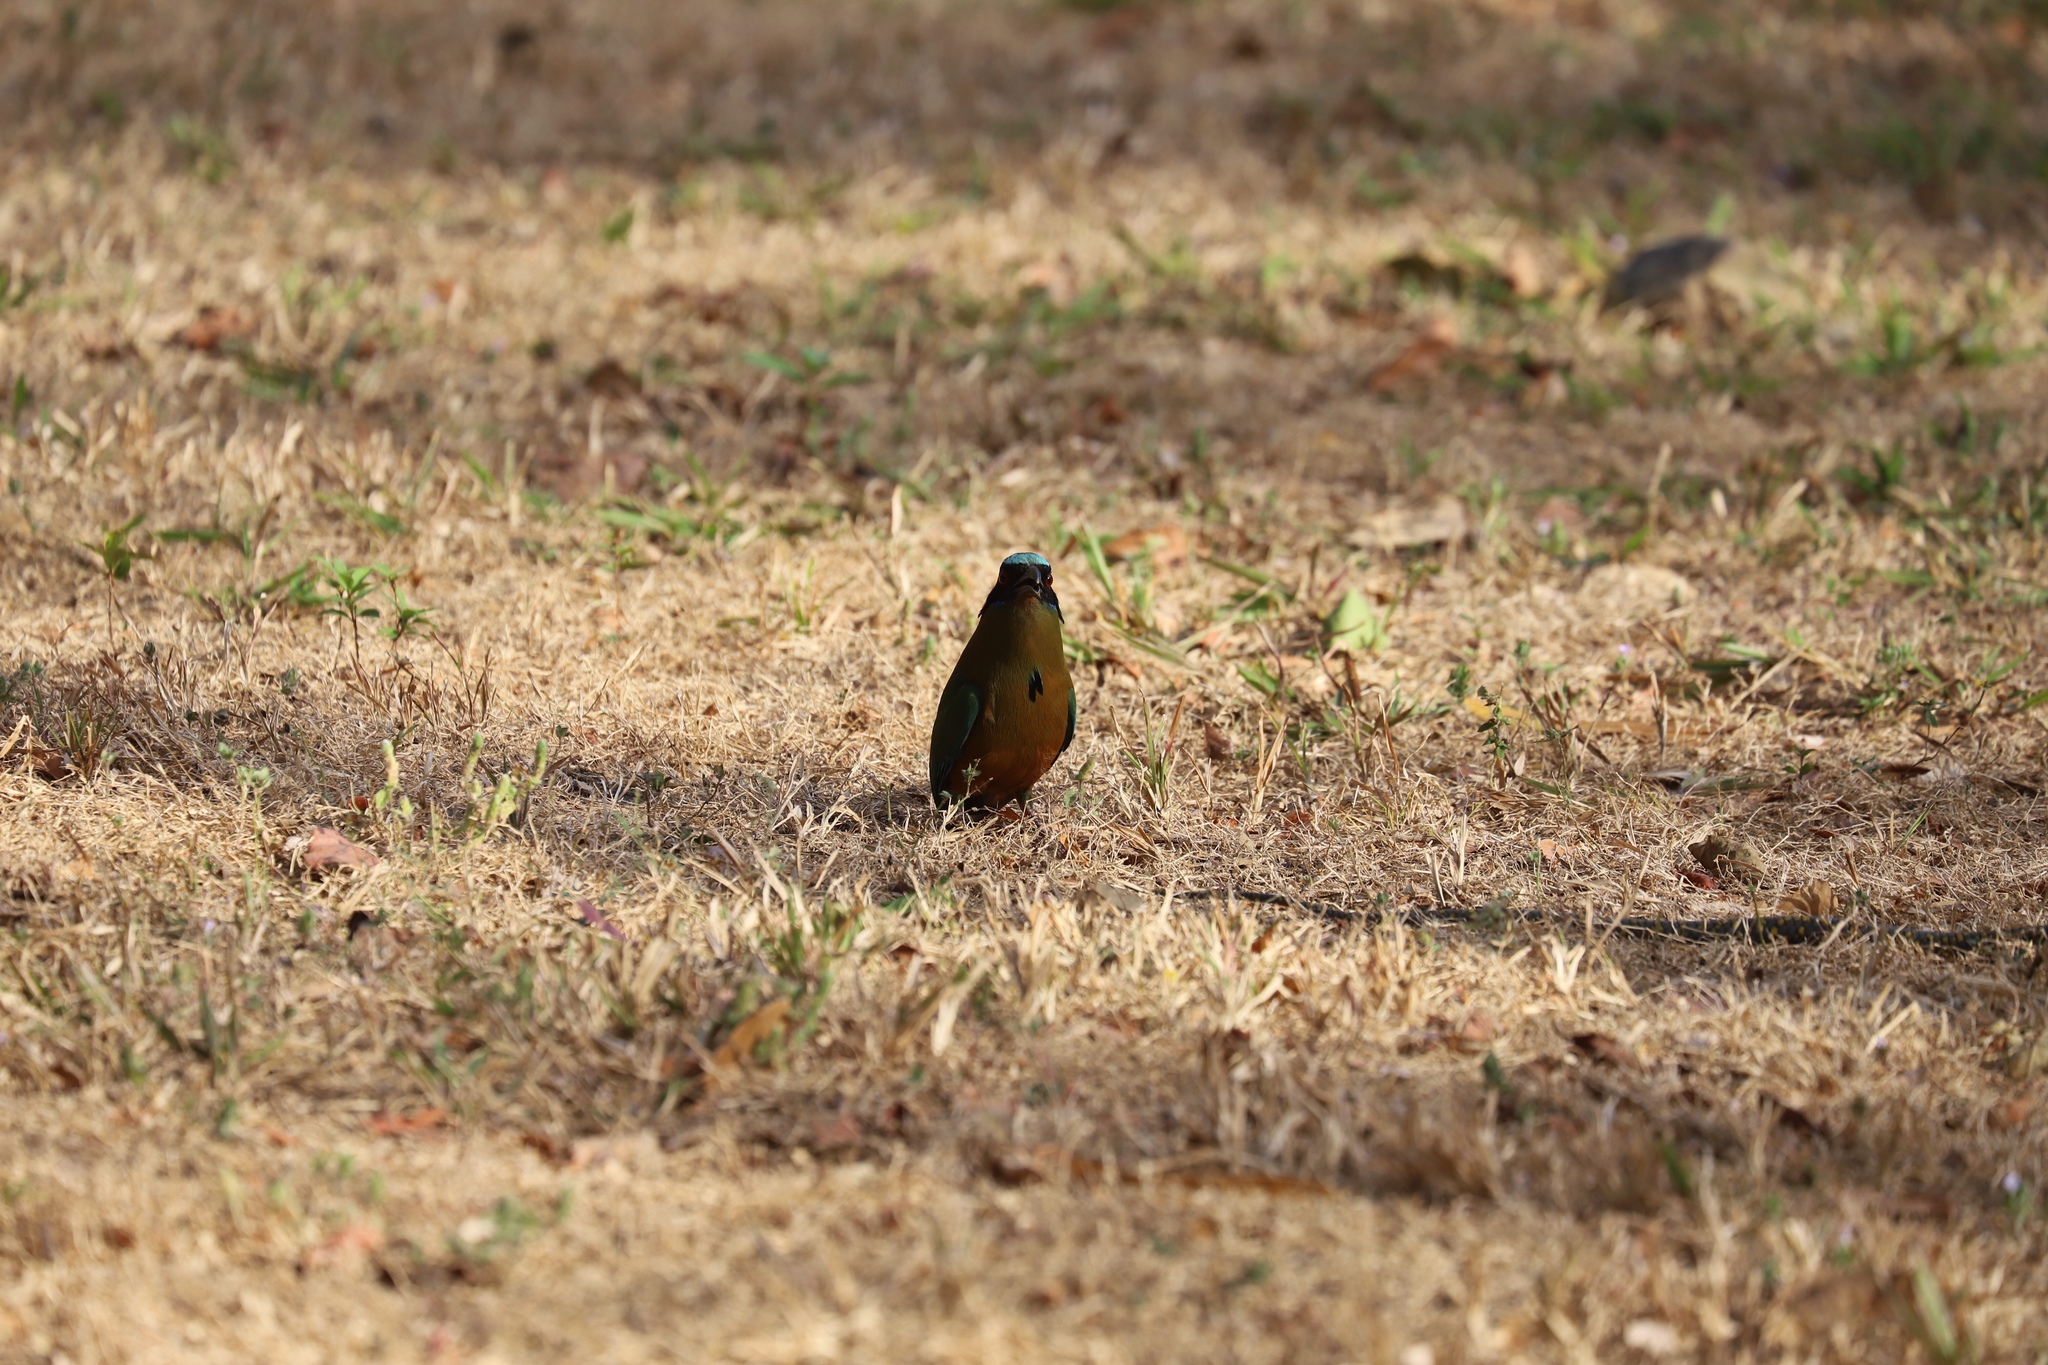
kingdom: Animalia
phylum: Chordata
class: Squamata
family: Colubridae
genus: Phrynonax
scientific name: Phrynonax poecilonotus
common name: Puffing snake
